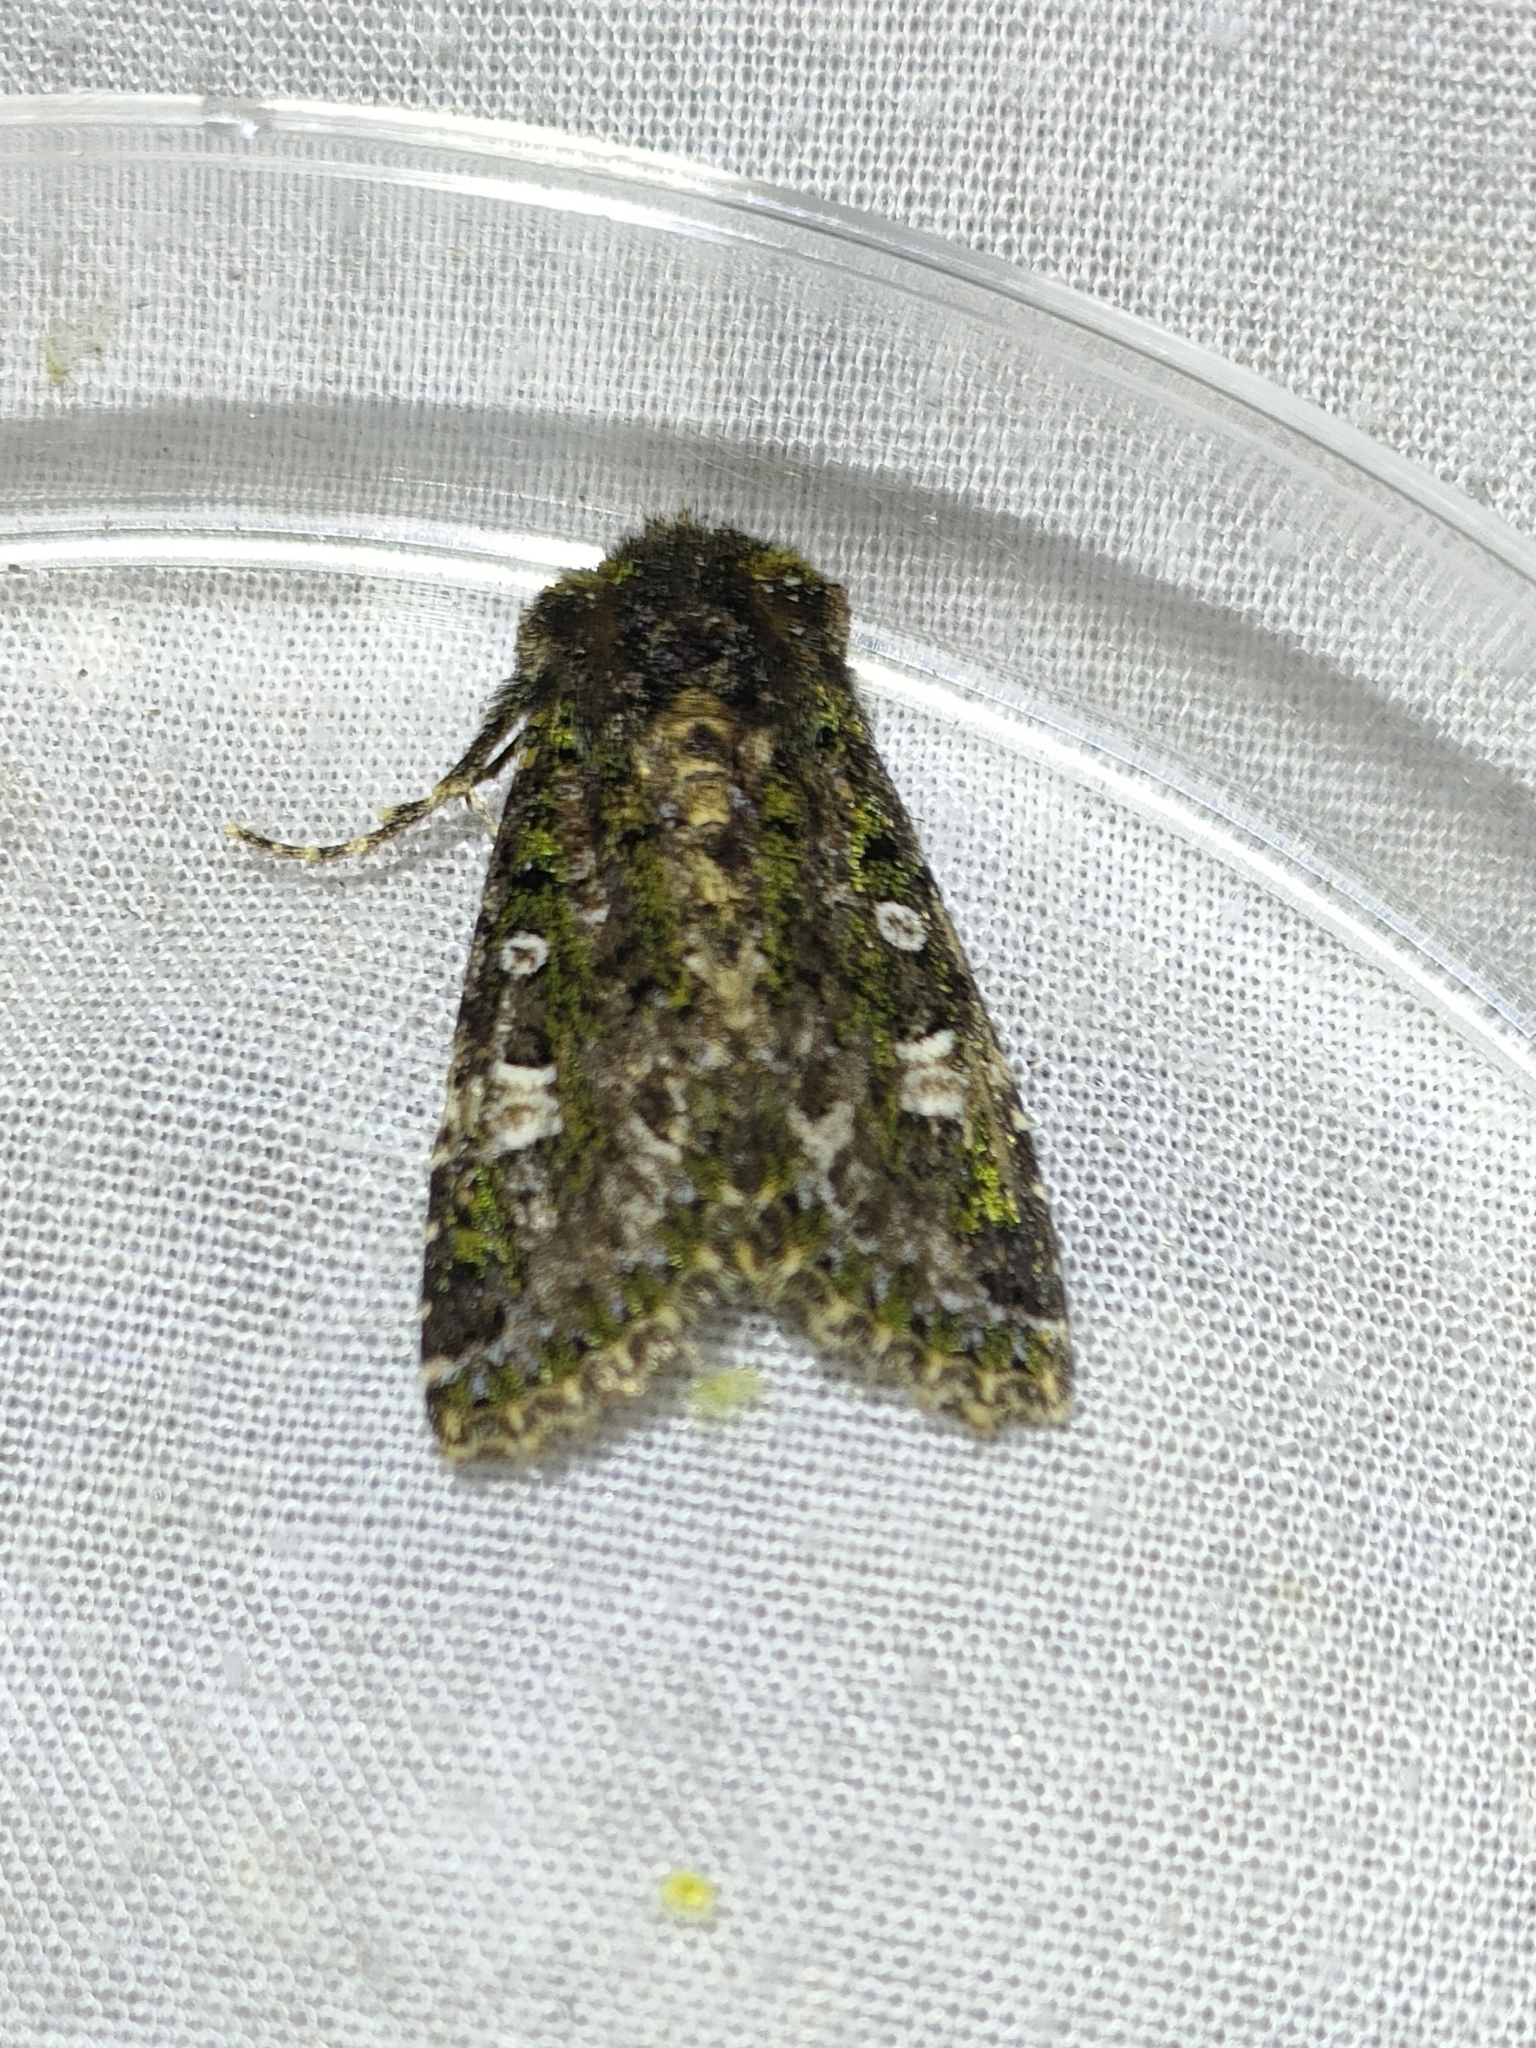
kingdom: Animalia
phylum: Arthropoda
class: Insecta
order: Lepidoptera
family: Noctuidae
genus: Valeria
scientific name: Valeria jaspidea
